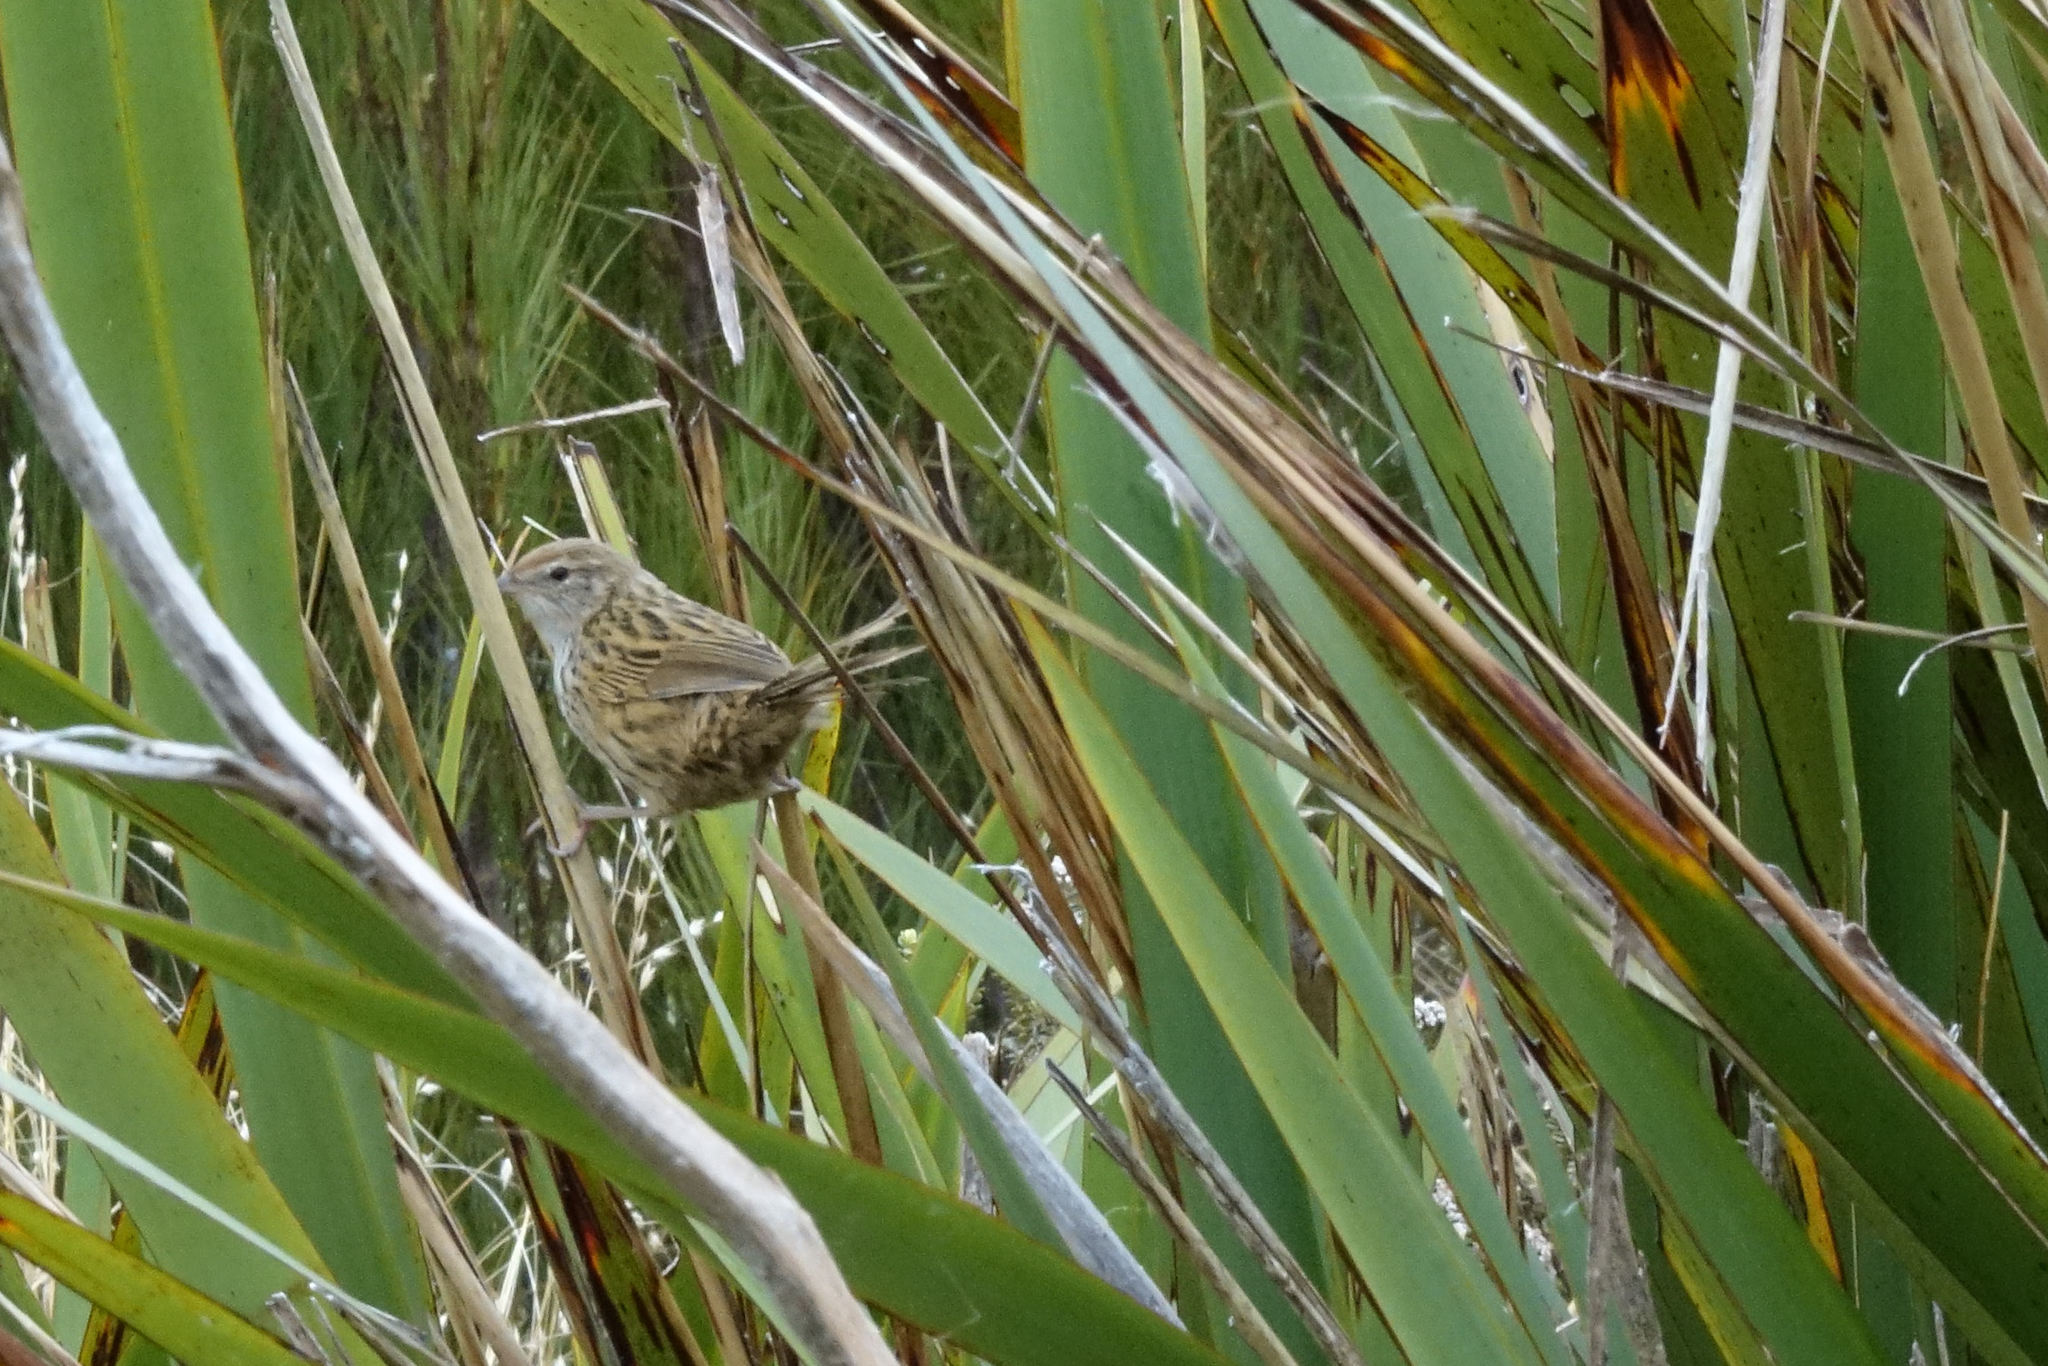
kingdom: Animalia
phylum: Chordata
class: Aves
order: Passeriformes
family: Locustellidae
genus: Poodytes
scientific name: Poodytes punctatus
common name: New zealand fernbird
